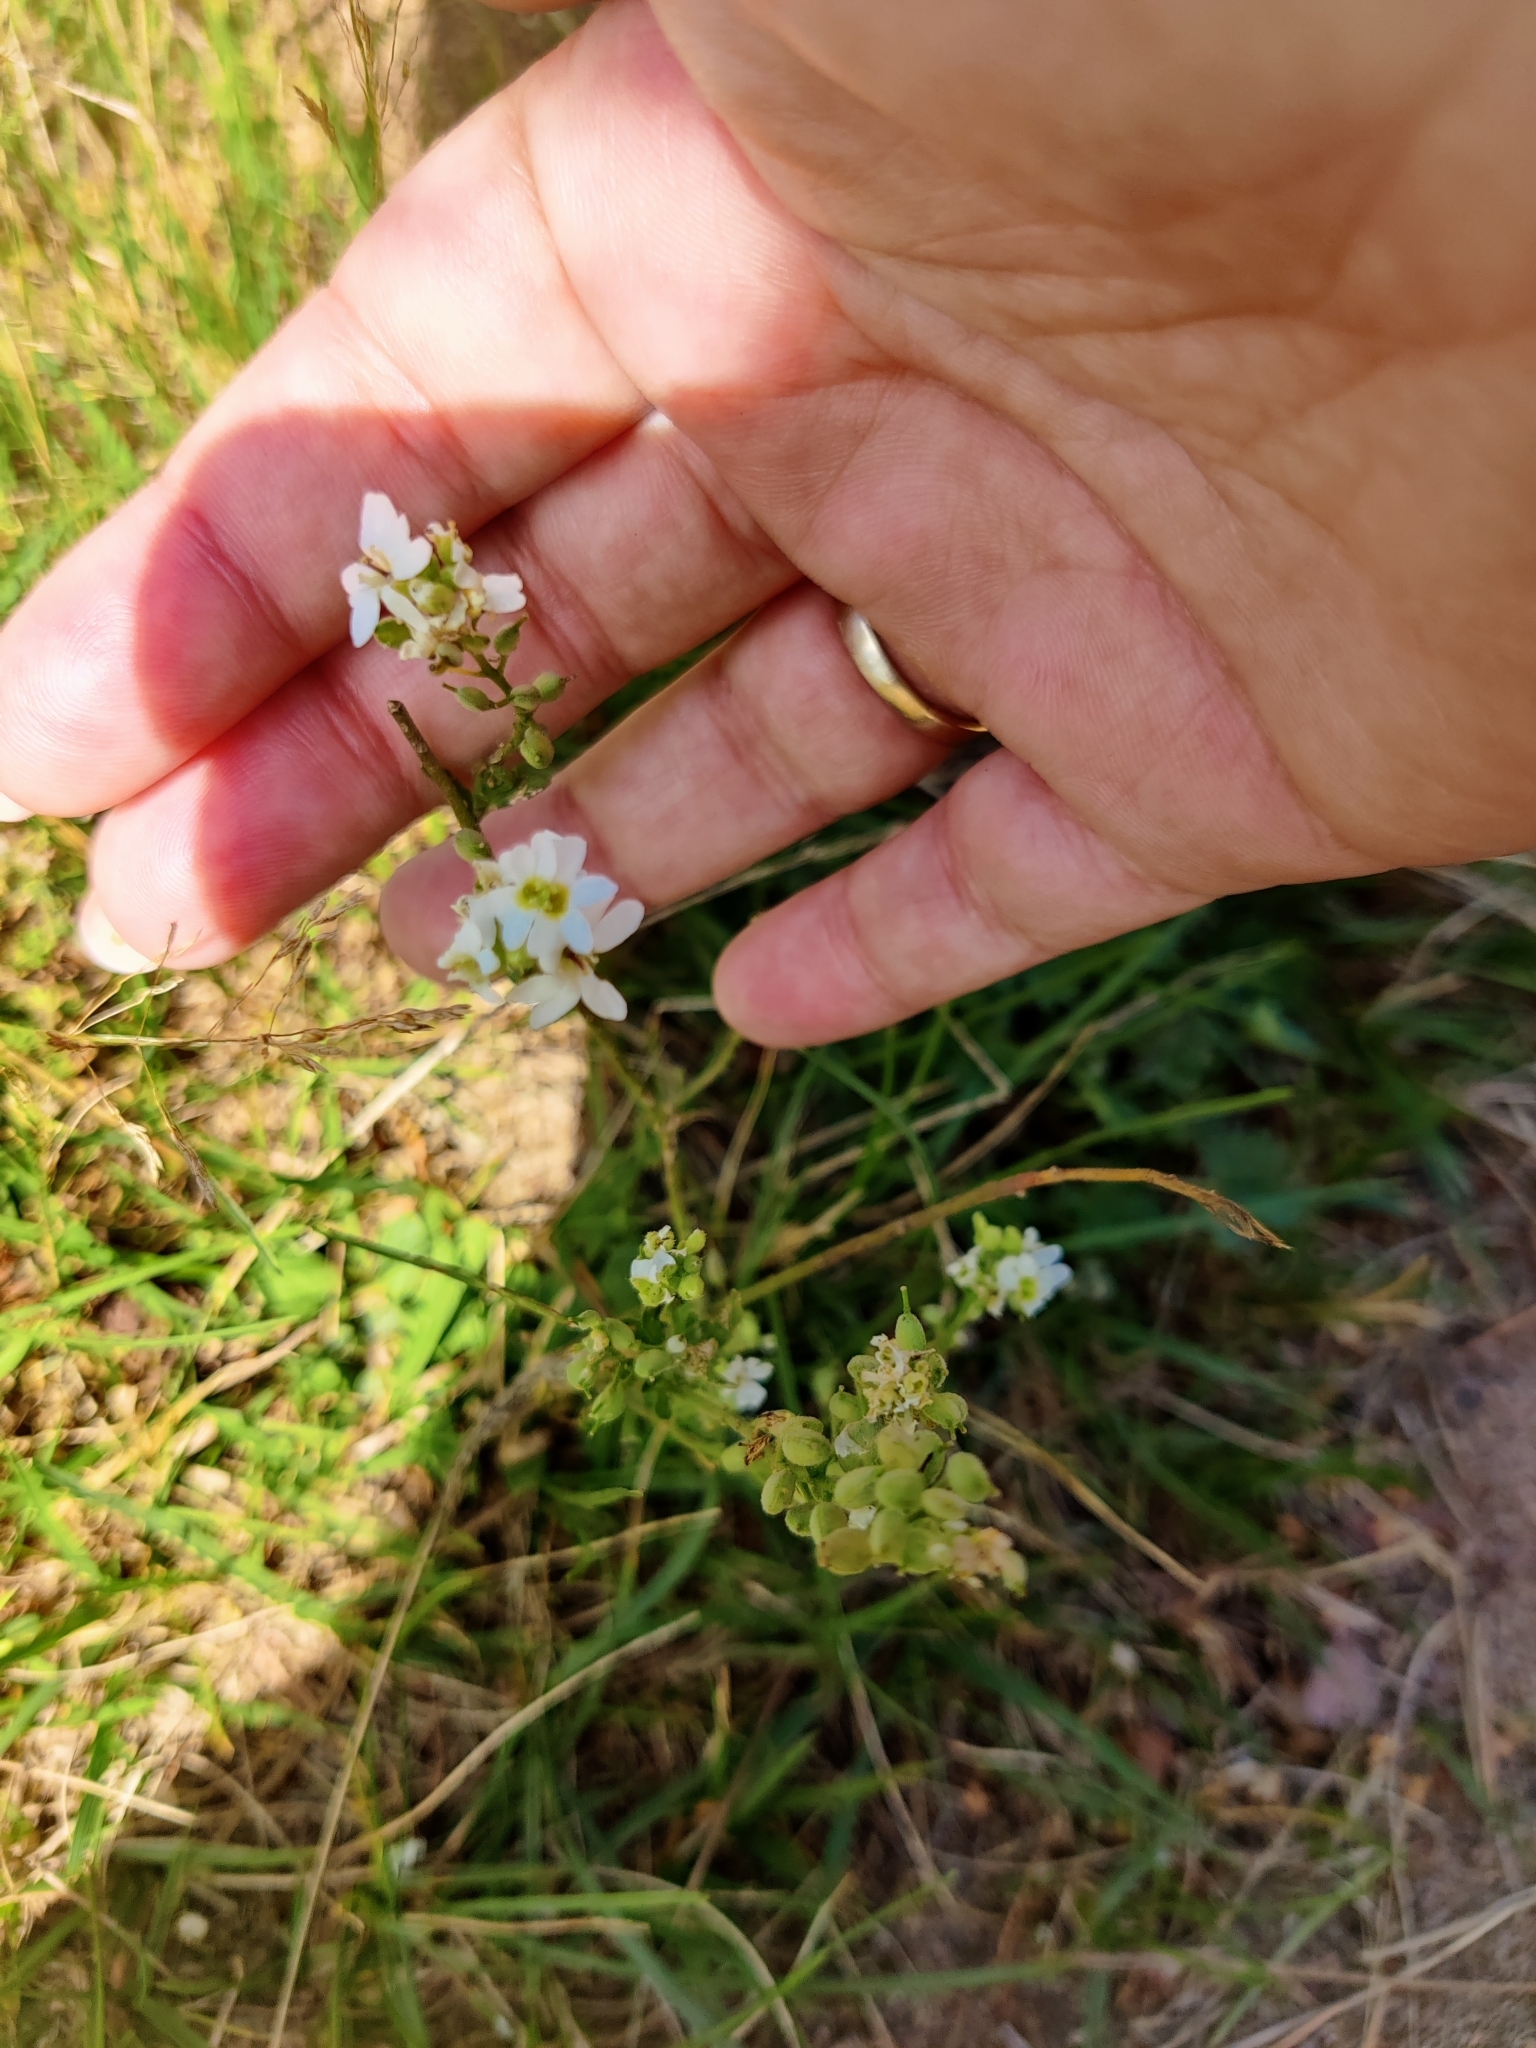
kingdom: Plantae
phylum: Tracheophyta
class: Magnoliopsida
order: Brassicales
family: Brassicaceae
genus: Berteroa
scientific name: Berteroa incana
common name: Hoary alison
